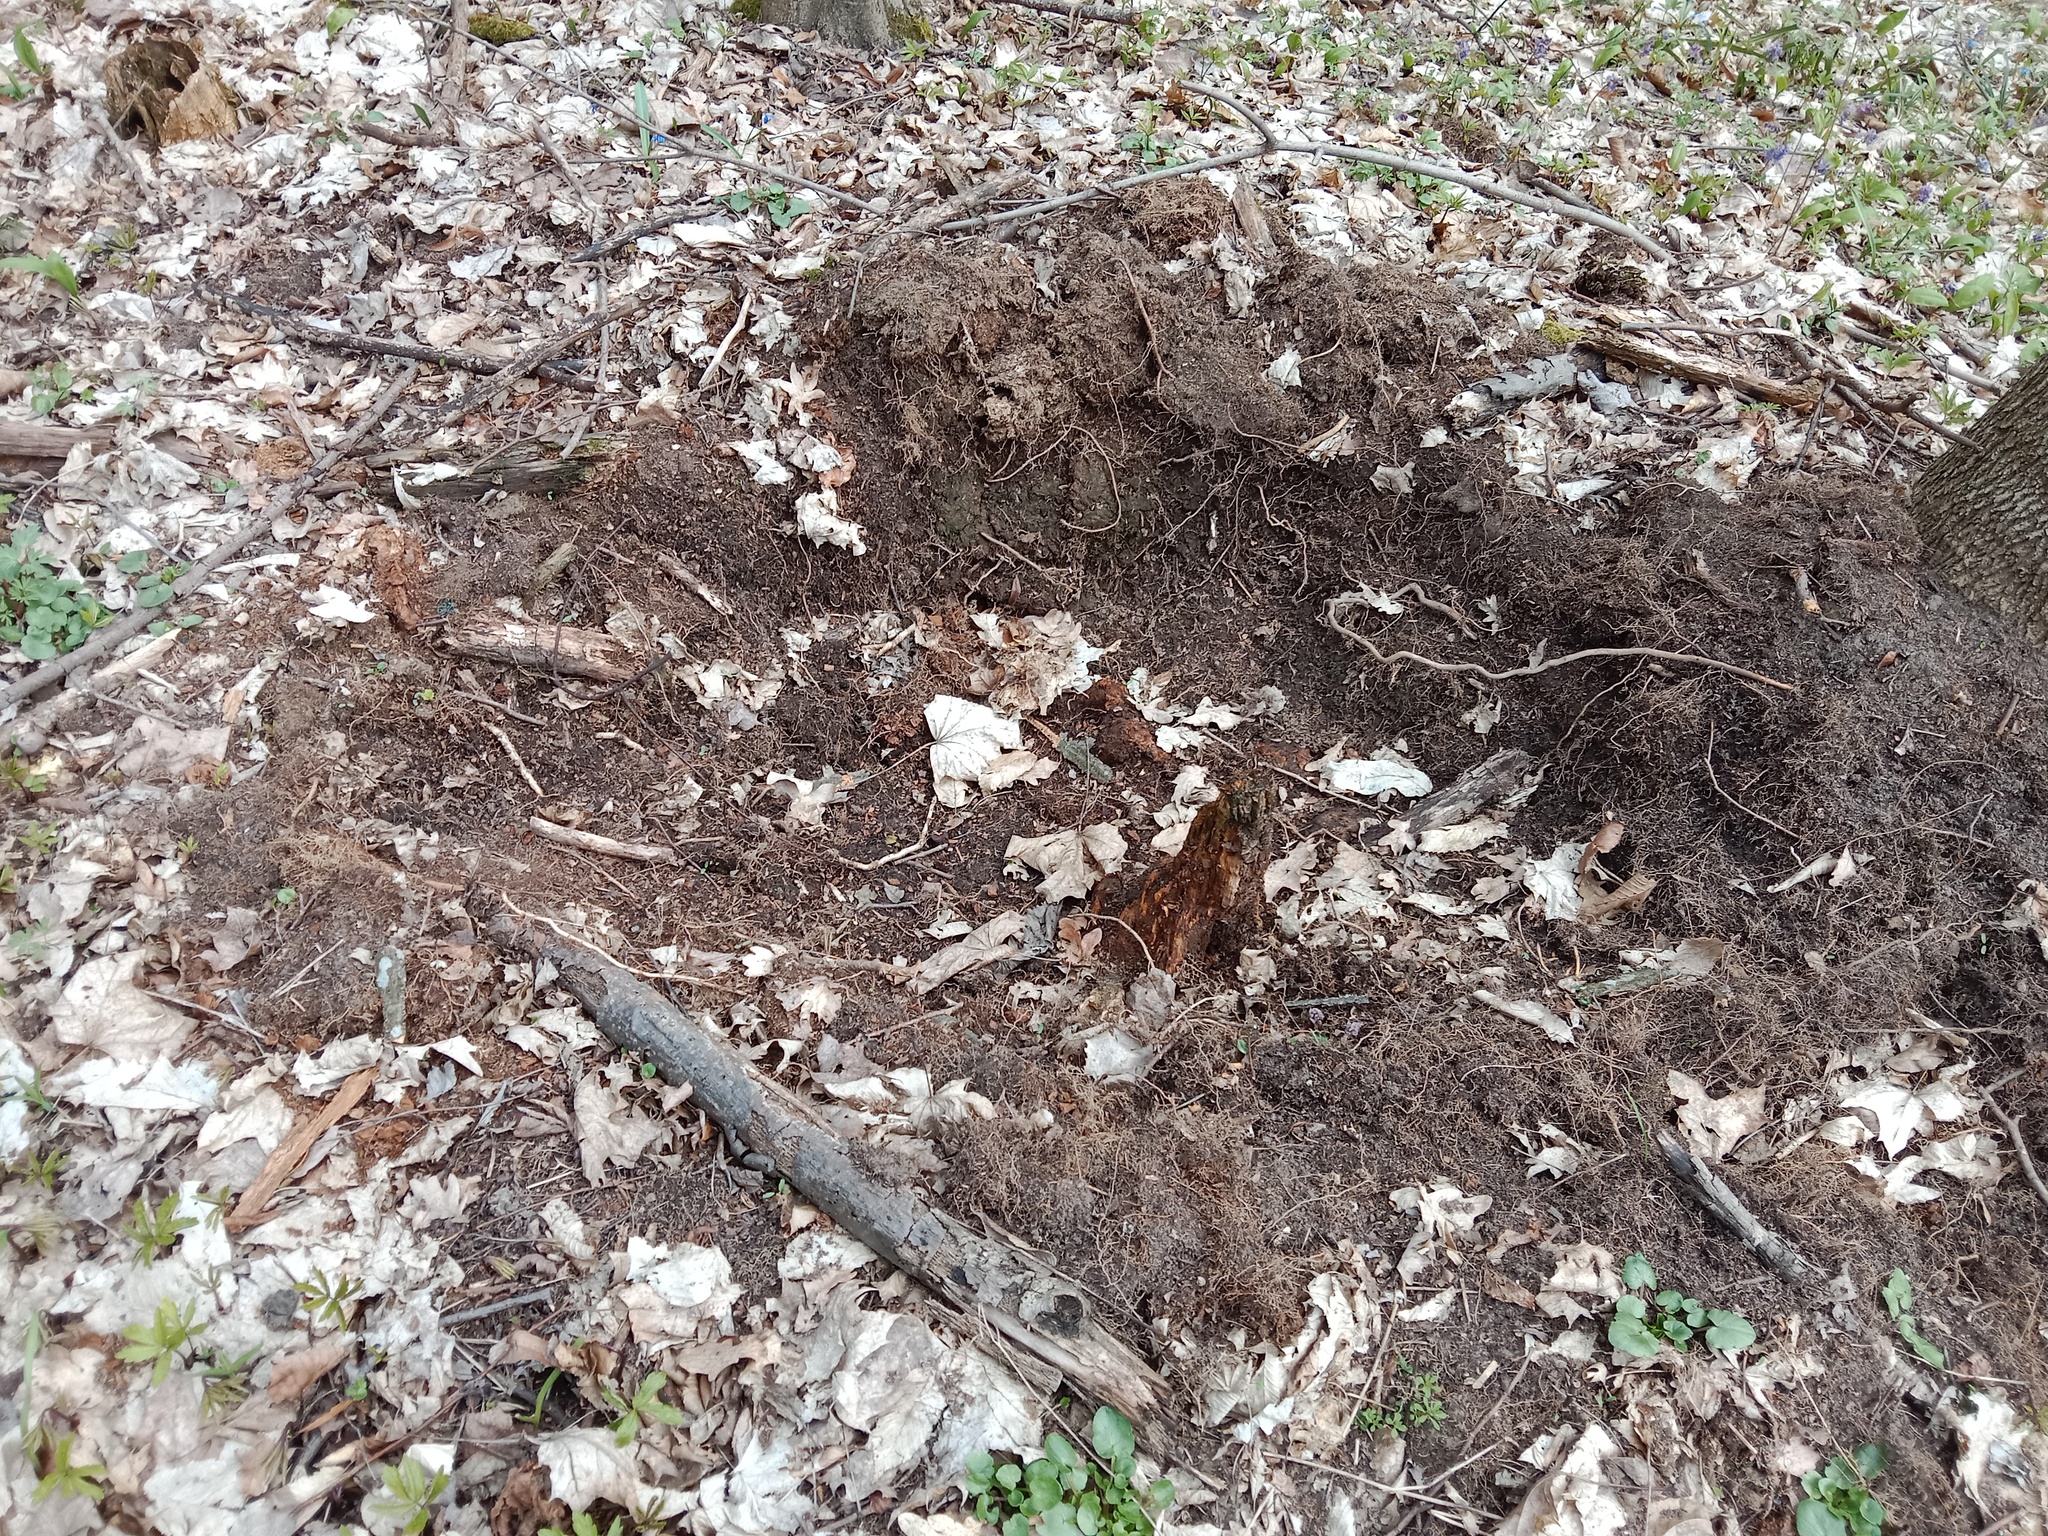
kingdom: Animalia
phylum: Chordata
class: Mammalia
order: Artiodactyla
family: Suidae
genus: Sus
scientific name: Sus scrofa
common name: Wild boar
